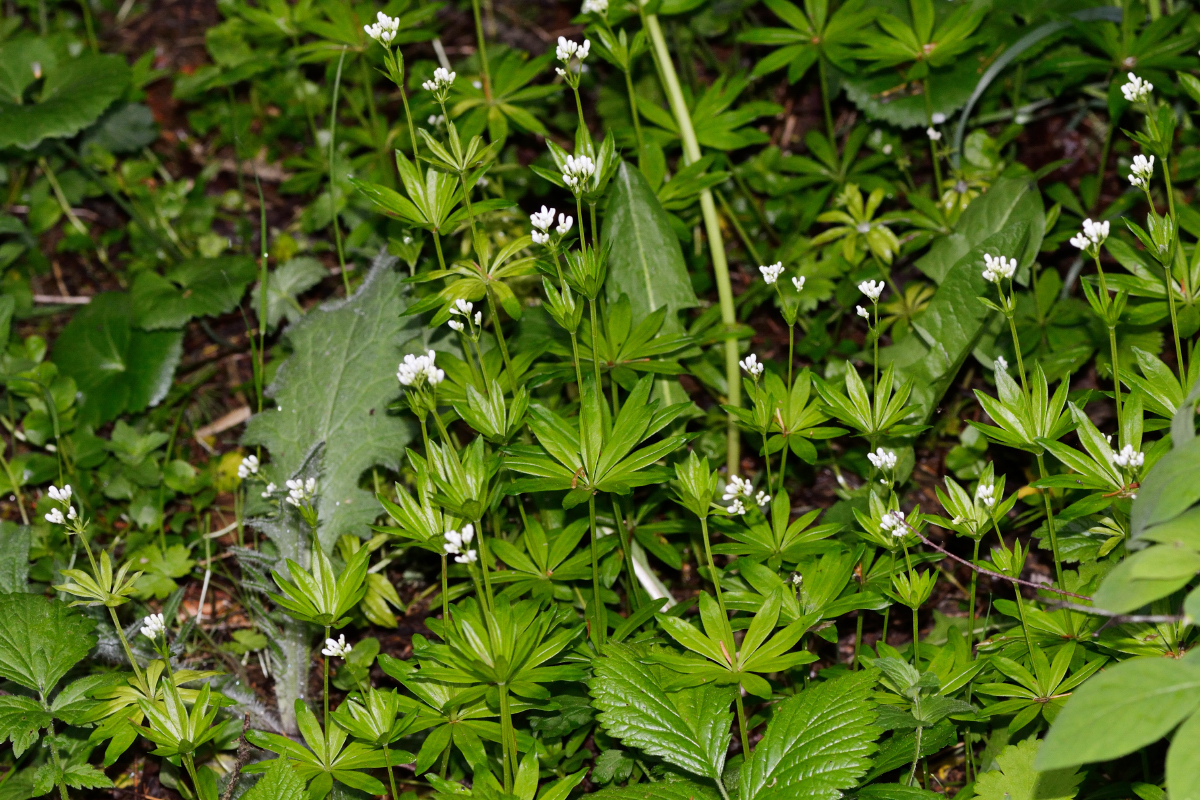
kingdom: Plantae
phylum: Tracheophyta
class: Magnoliopsida
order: Gentianales
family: Rubiaceae
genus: Galium
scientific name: Galium odoratum
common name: Sweet woodruff
